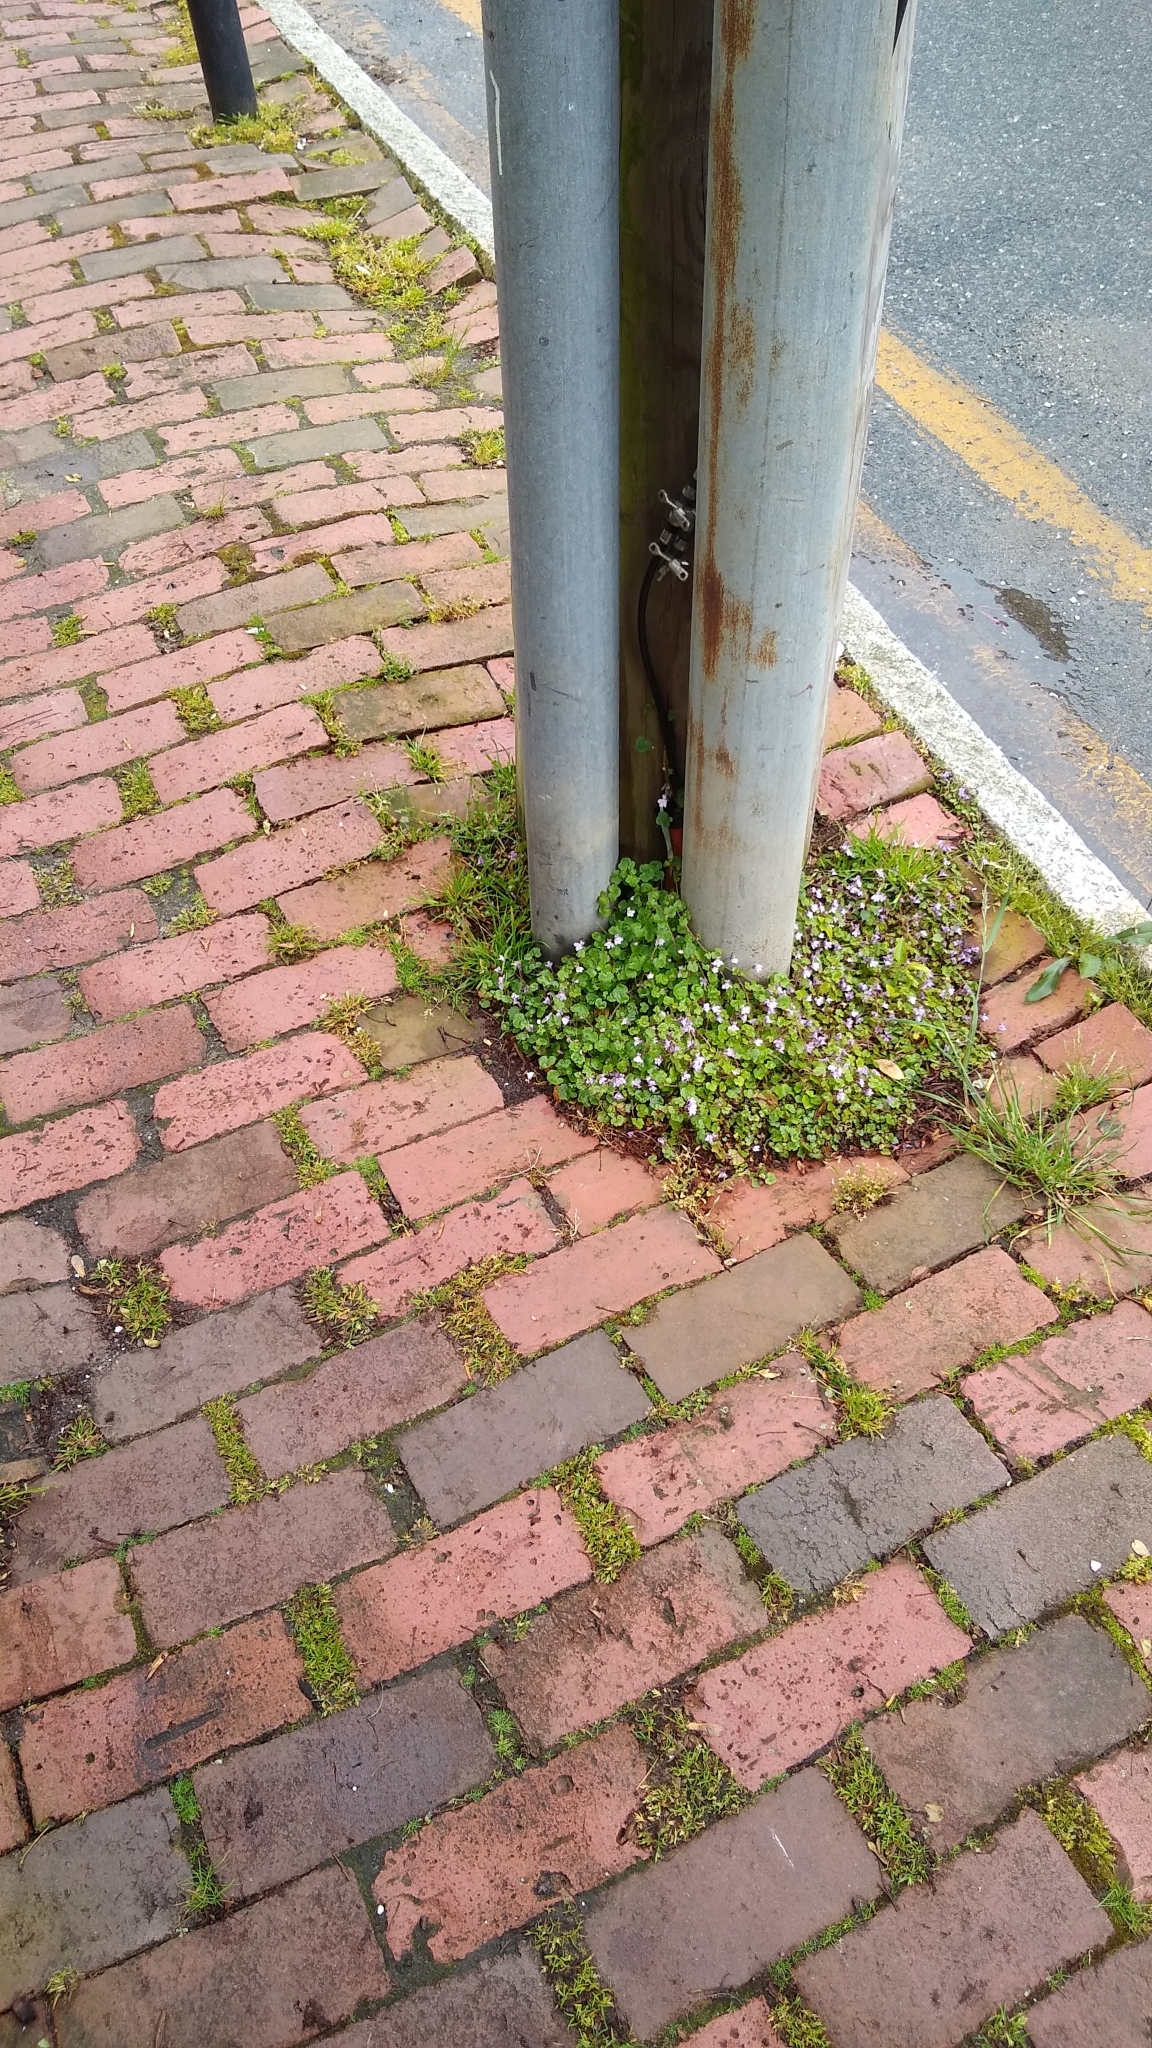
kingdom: Plantae
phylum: Tracheophyta
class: Magnoliopsida
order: Lamiales
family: Plantaginaceae
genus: Cymbalaria
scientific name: Cymbalaria muralis
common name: Ivy-leaved toadflax
